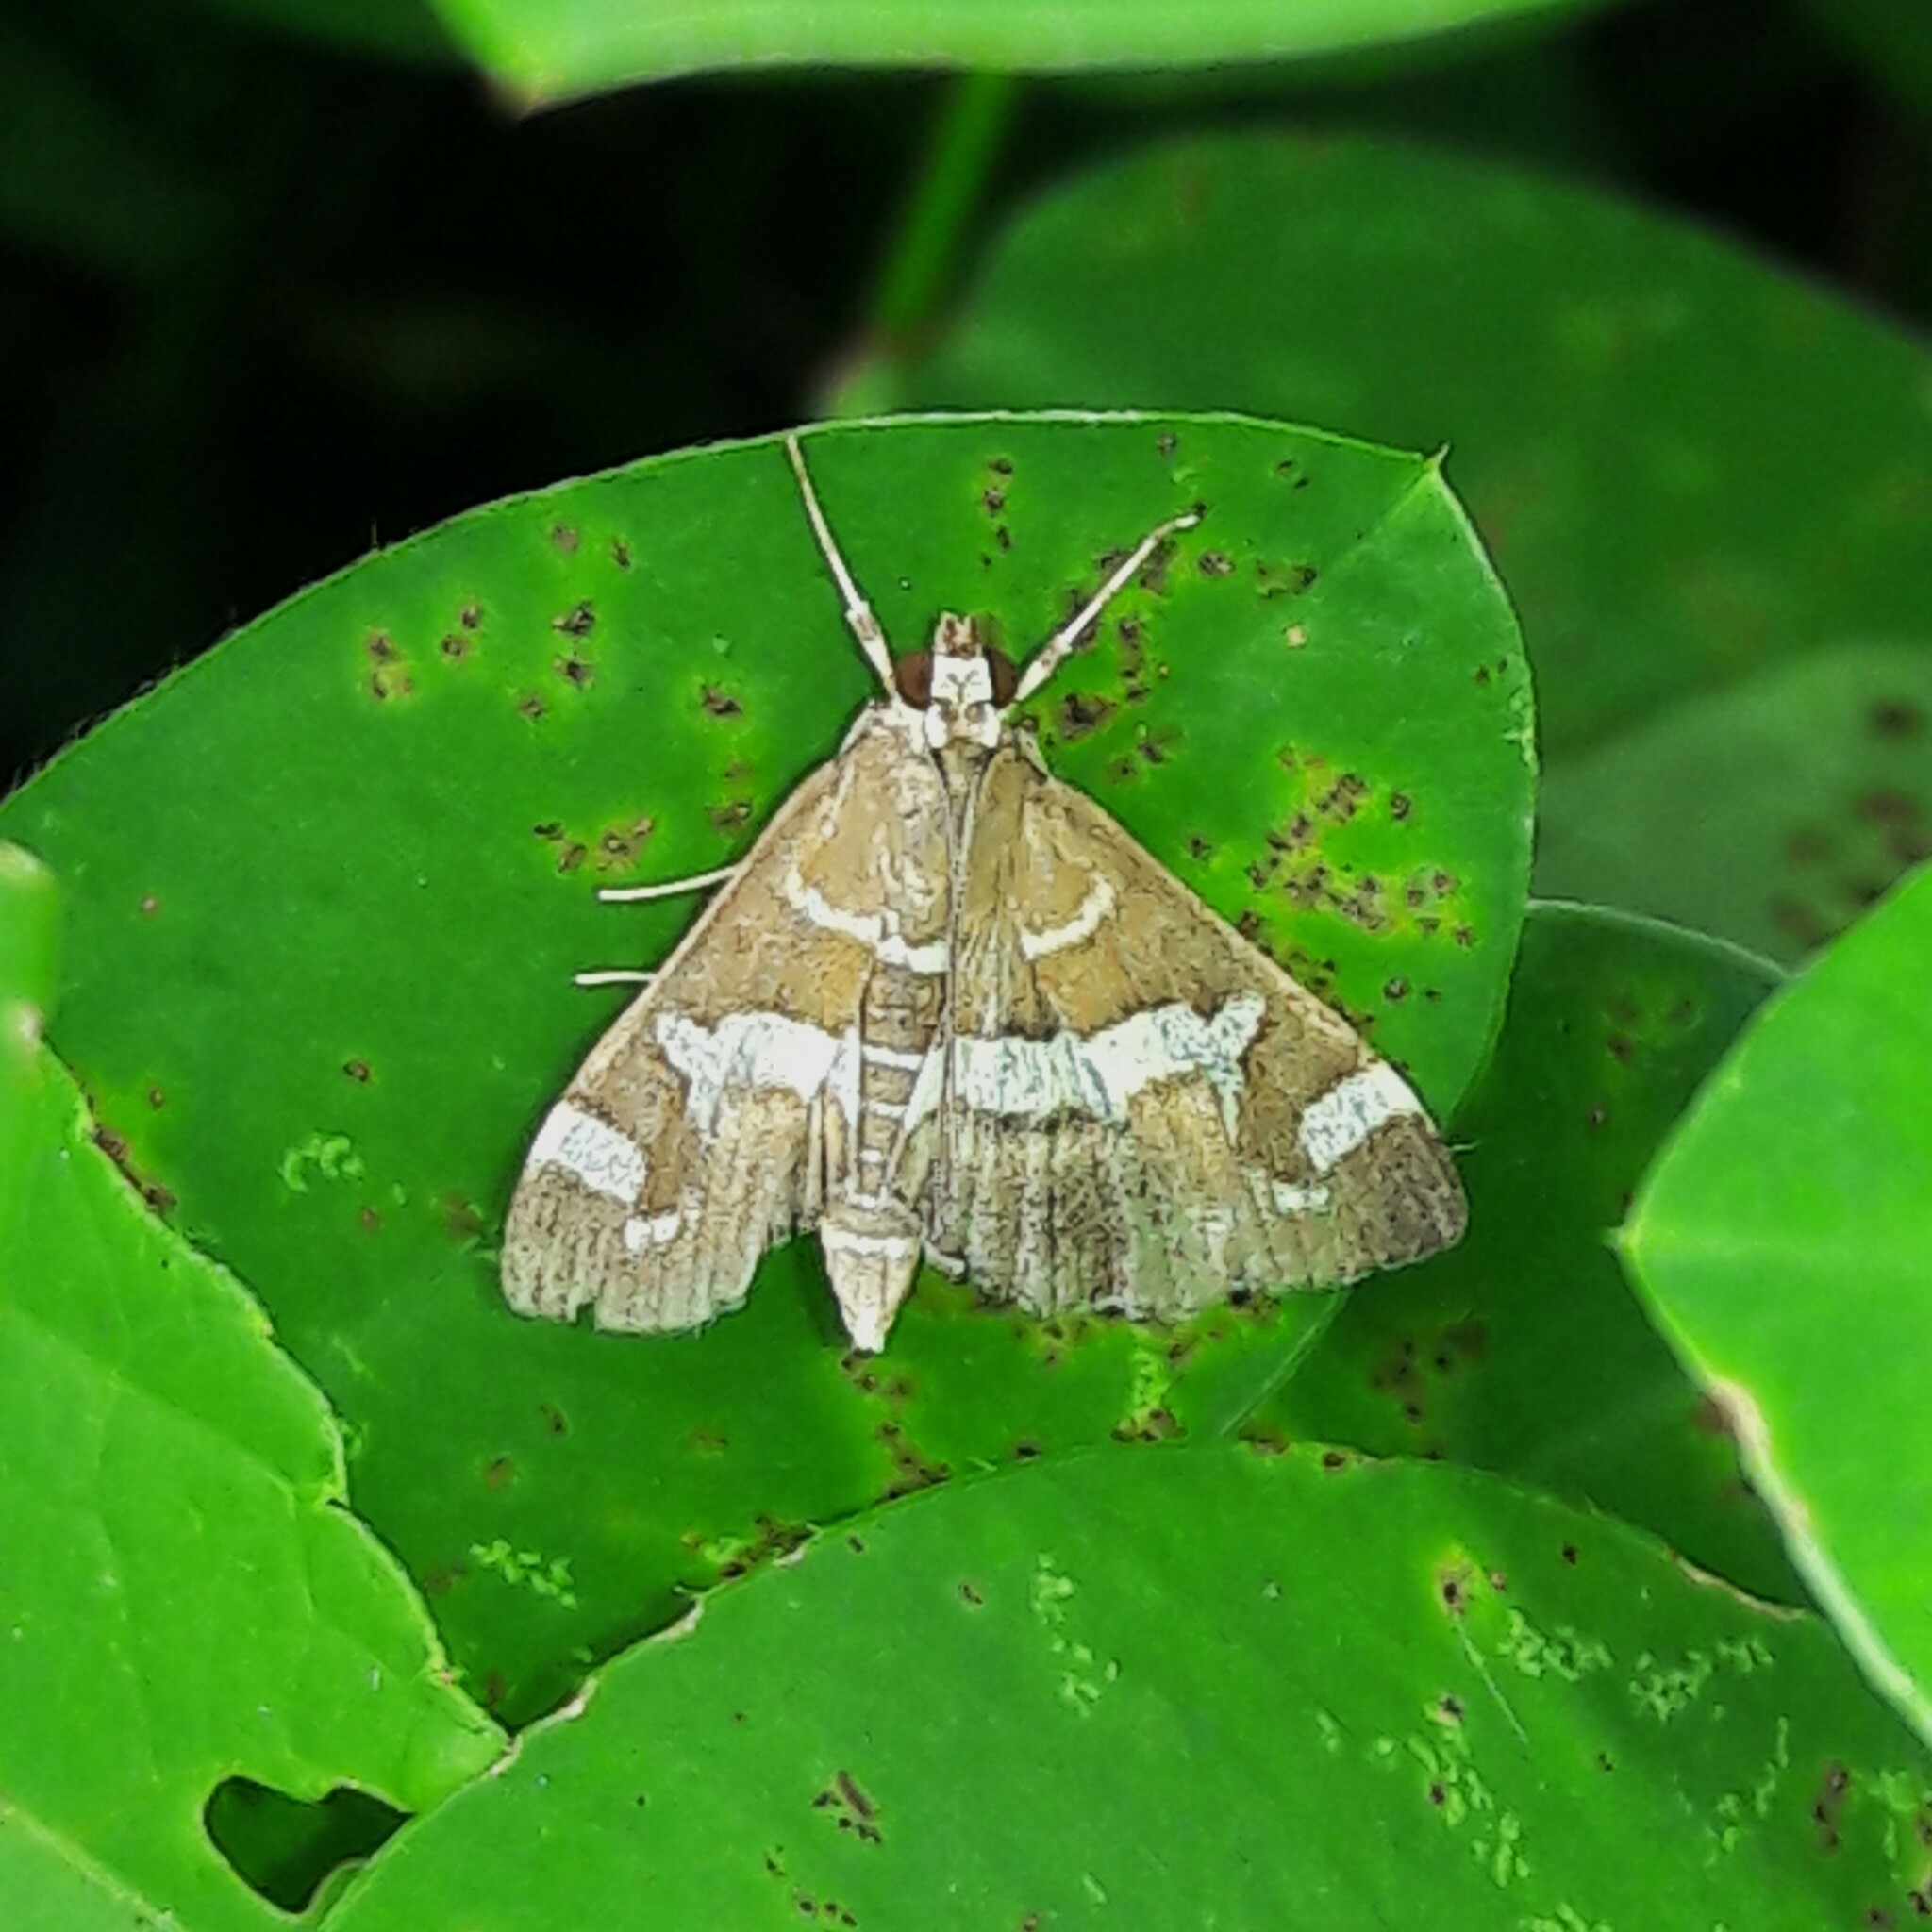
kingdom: Animalia
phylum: Arthropoda
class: Insecta
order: Lepidoptera
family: Crambidae
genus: Spoladea
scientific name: Spoladea recurvalis
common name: Beet webworm moth
